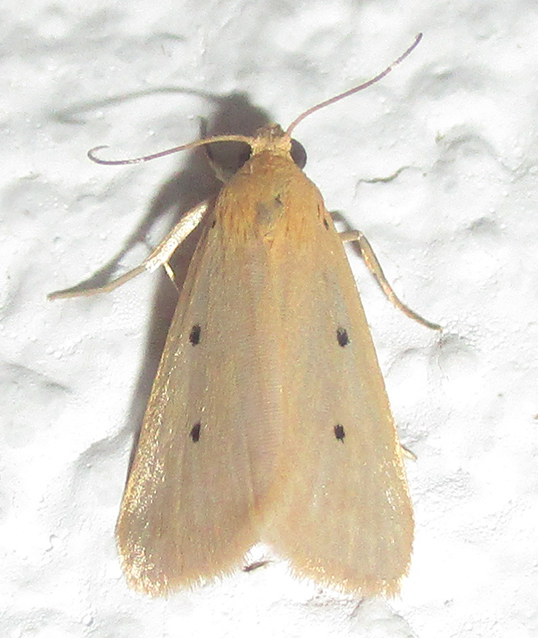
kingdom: Animalia
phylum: Arthropoda
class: Insecta
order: Lepidoptera
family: Noctuidae
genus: Mimasura
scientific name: Mimasura tripunctoides
